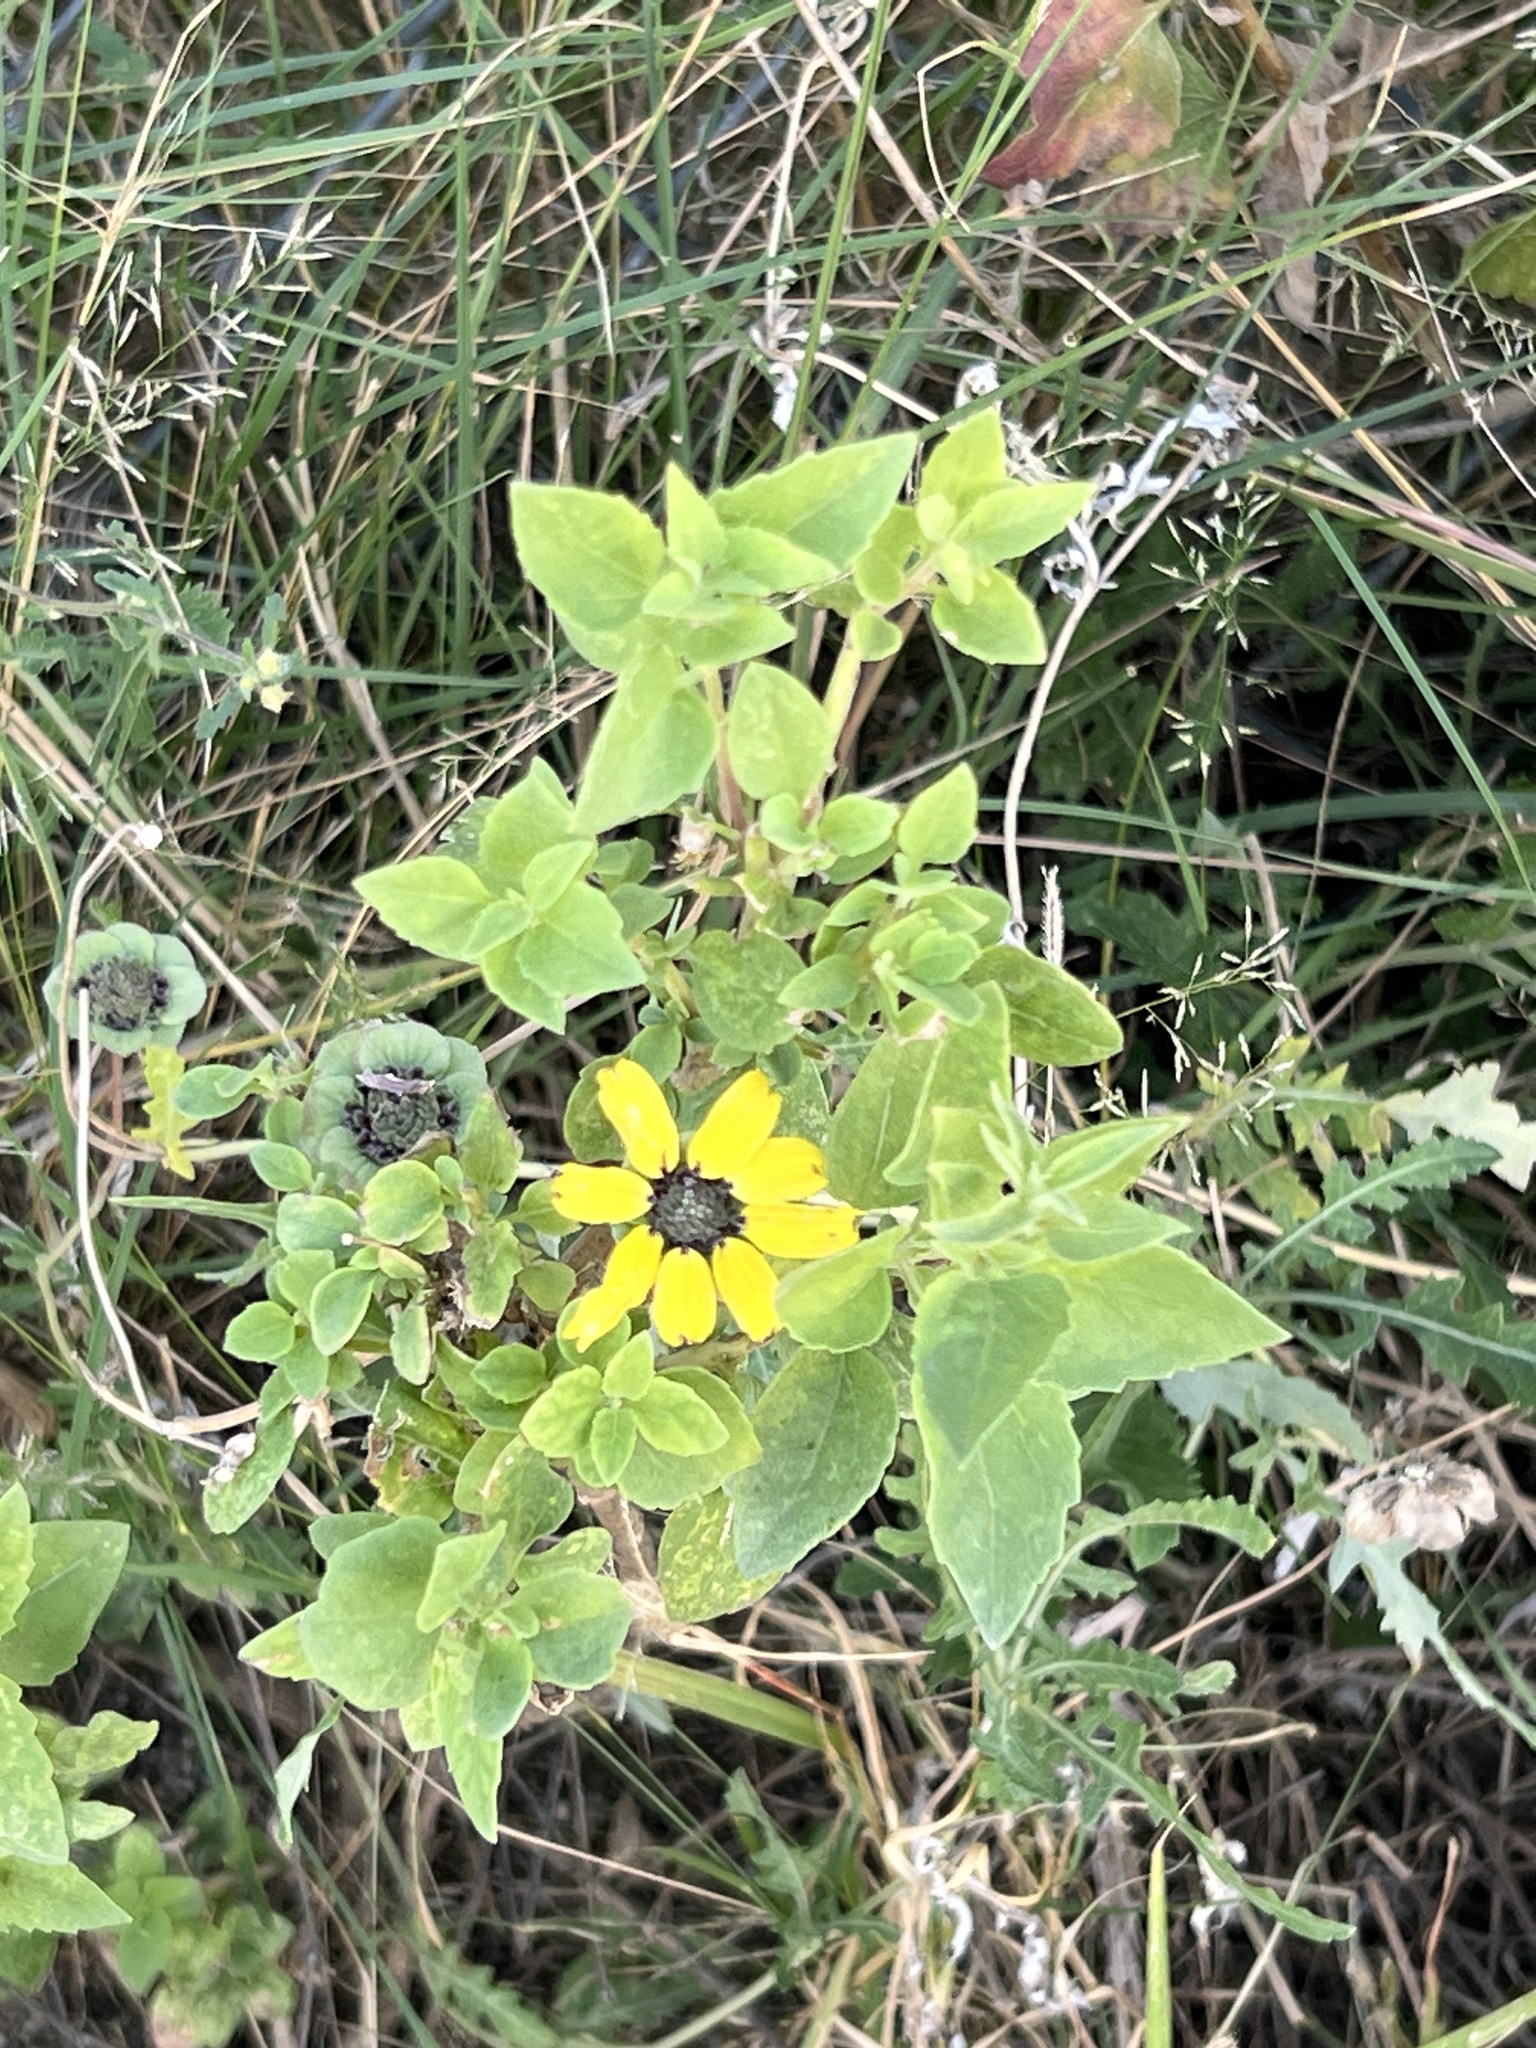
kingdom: Plantae
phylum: Tracheophyta
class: Magnoliopsida
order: Asterales
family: Asteraceae
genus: Berlandiera
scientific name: Berlandiera lyrata
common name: Chocolate-flower
